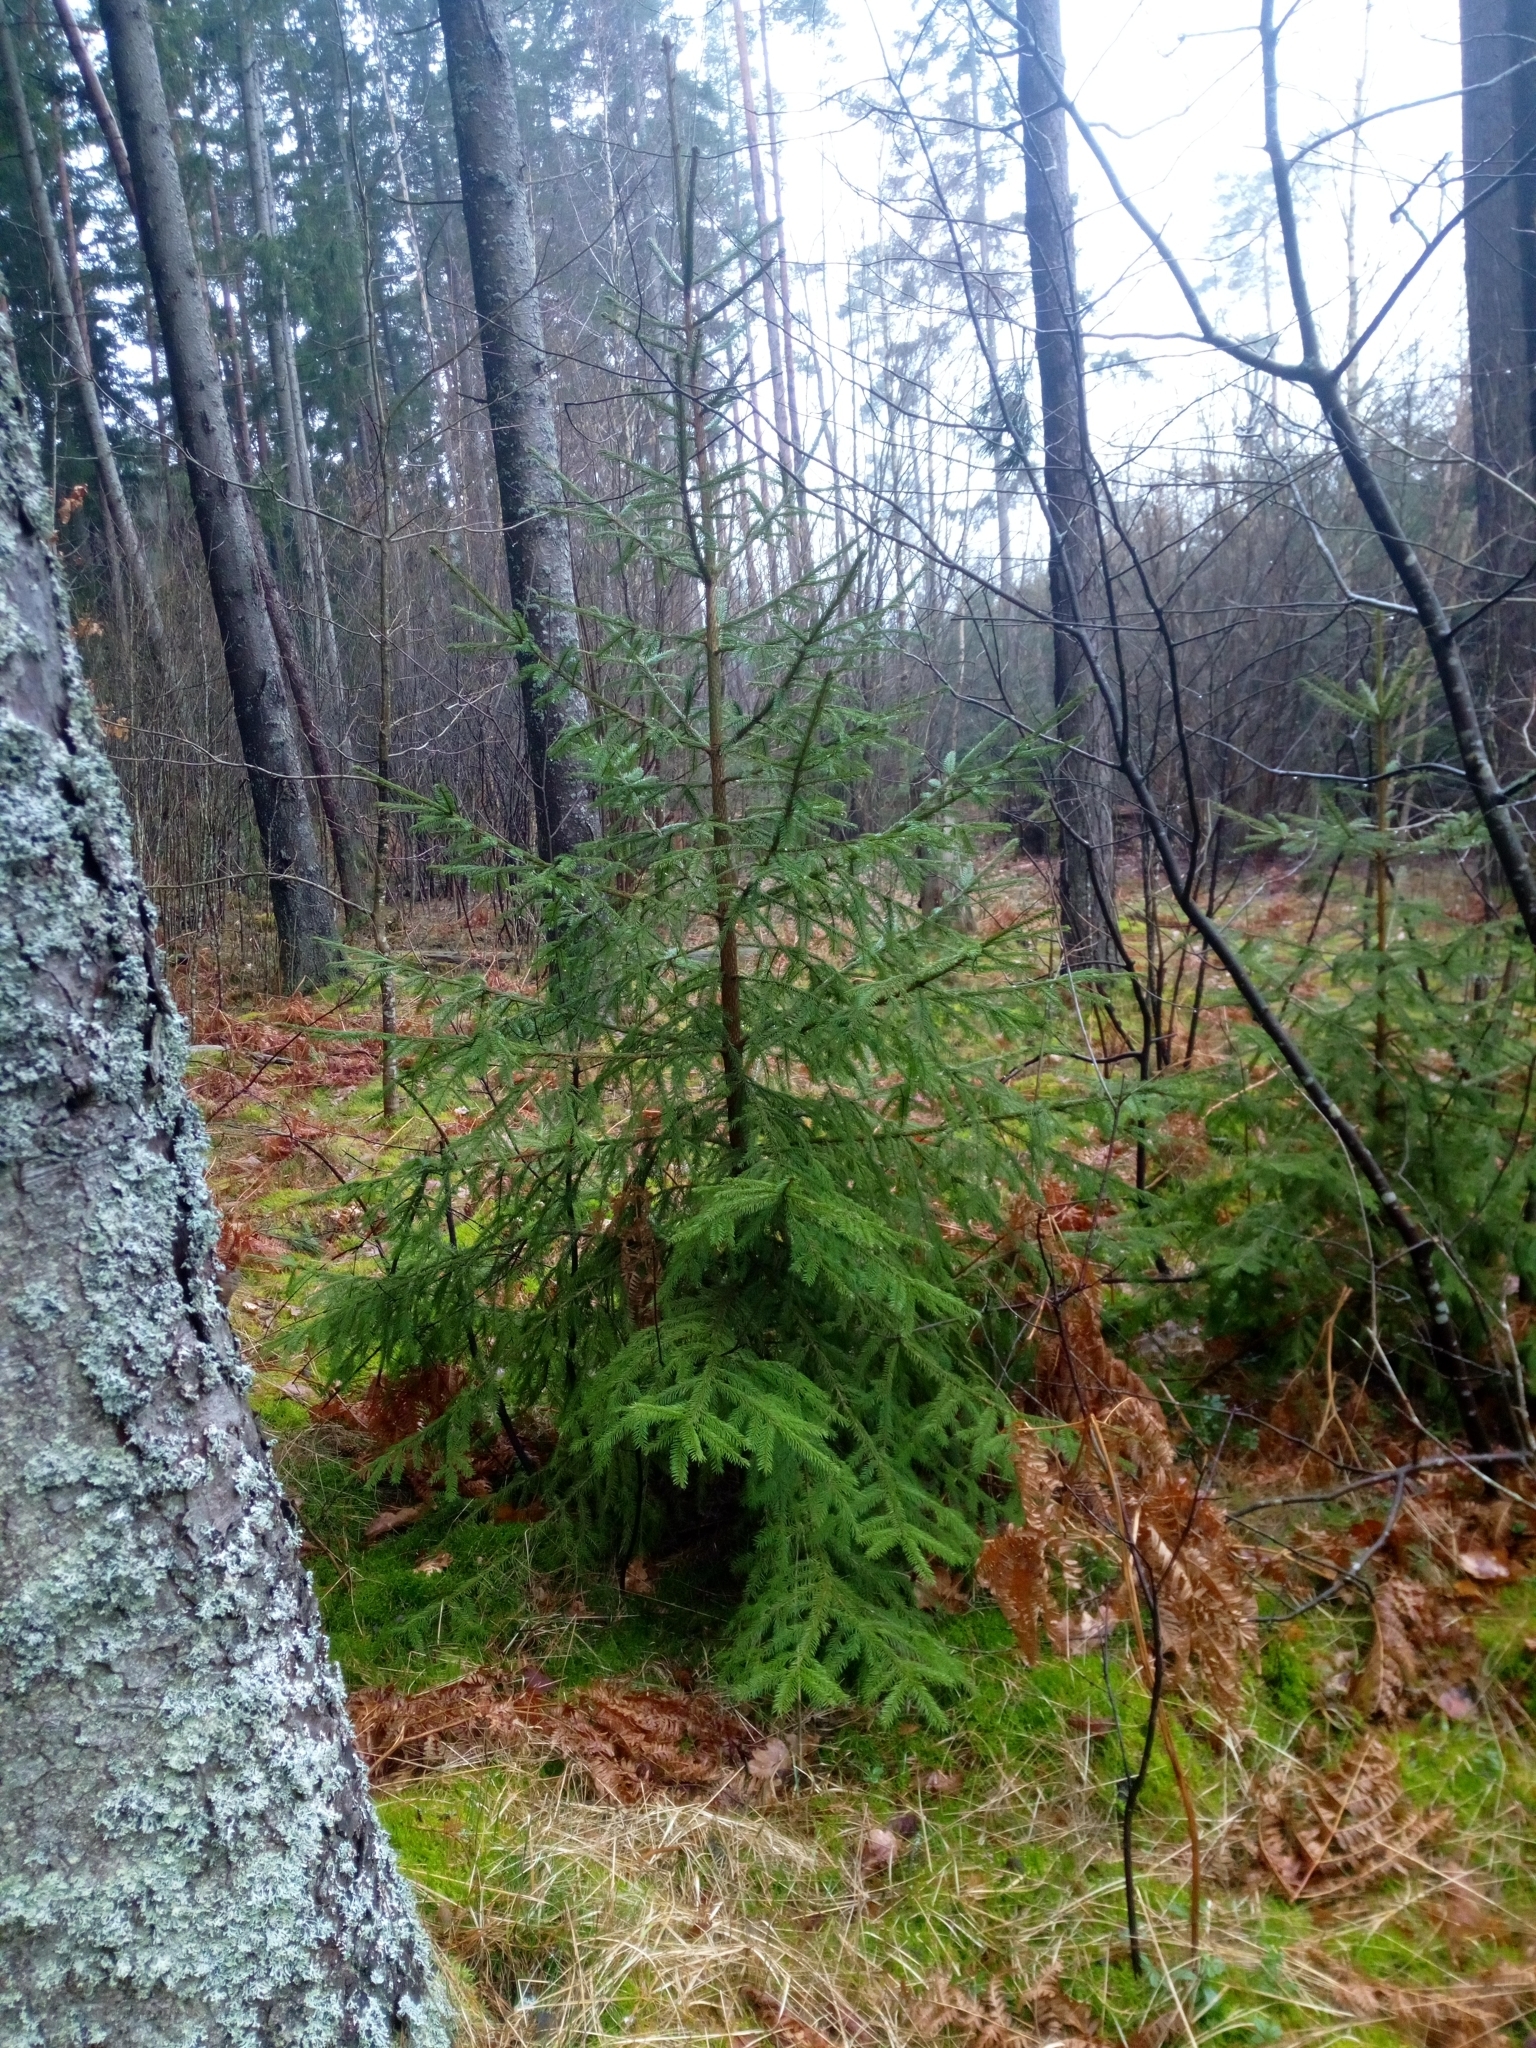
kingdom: Plantae
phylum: Tracheophyta
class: Pinopsida
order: Pinales
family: Pinaceae
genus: Picea
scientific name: Picea abies
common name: Norway spruce
